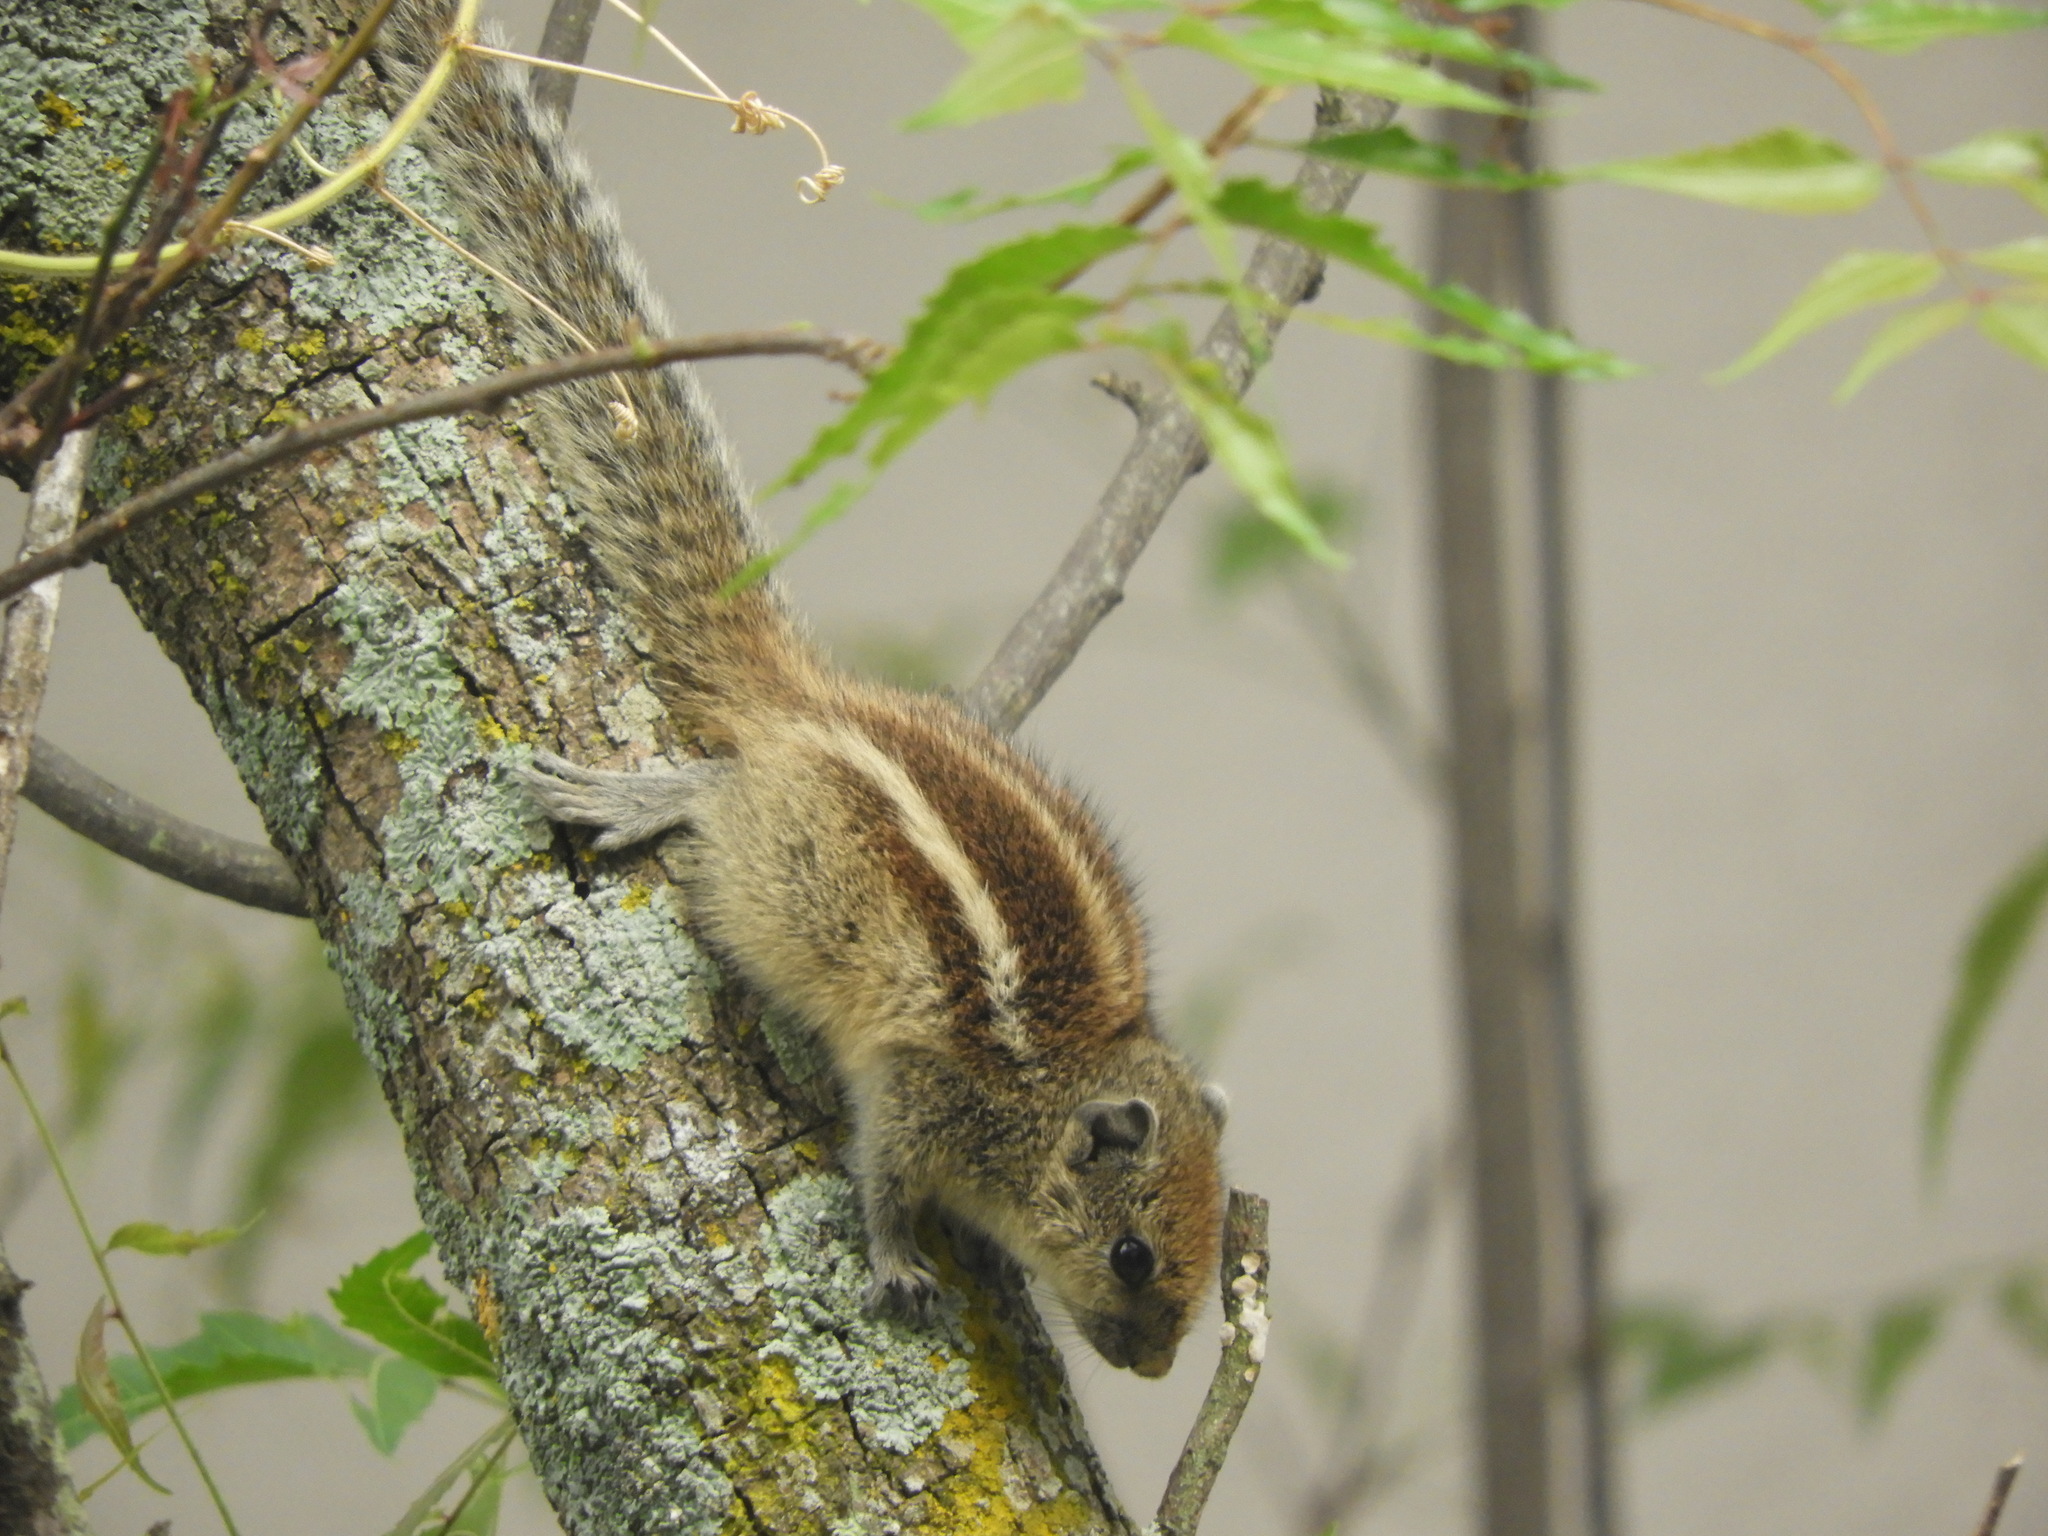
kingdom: Animalia
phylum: Chordata
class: Mammalia
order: Rodentia
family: Sciuridae
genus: Funambulus
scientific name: Funambulus palmarum
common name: Indian palm squirrel
